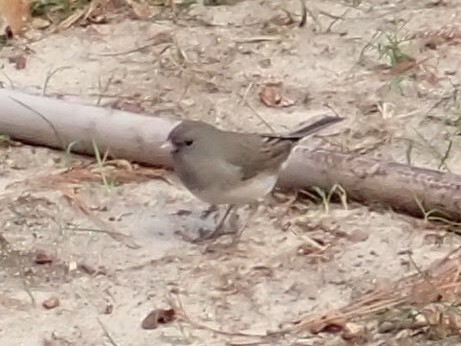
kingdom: Animalia
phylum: Chordata
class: Aves
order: Passeriformes
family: Passerellidae
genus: Junco
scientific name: Junco hyemalis
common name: Dark-eyed junco
